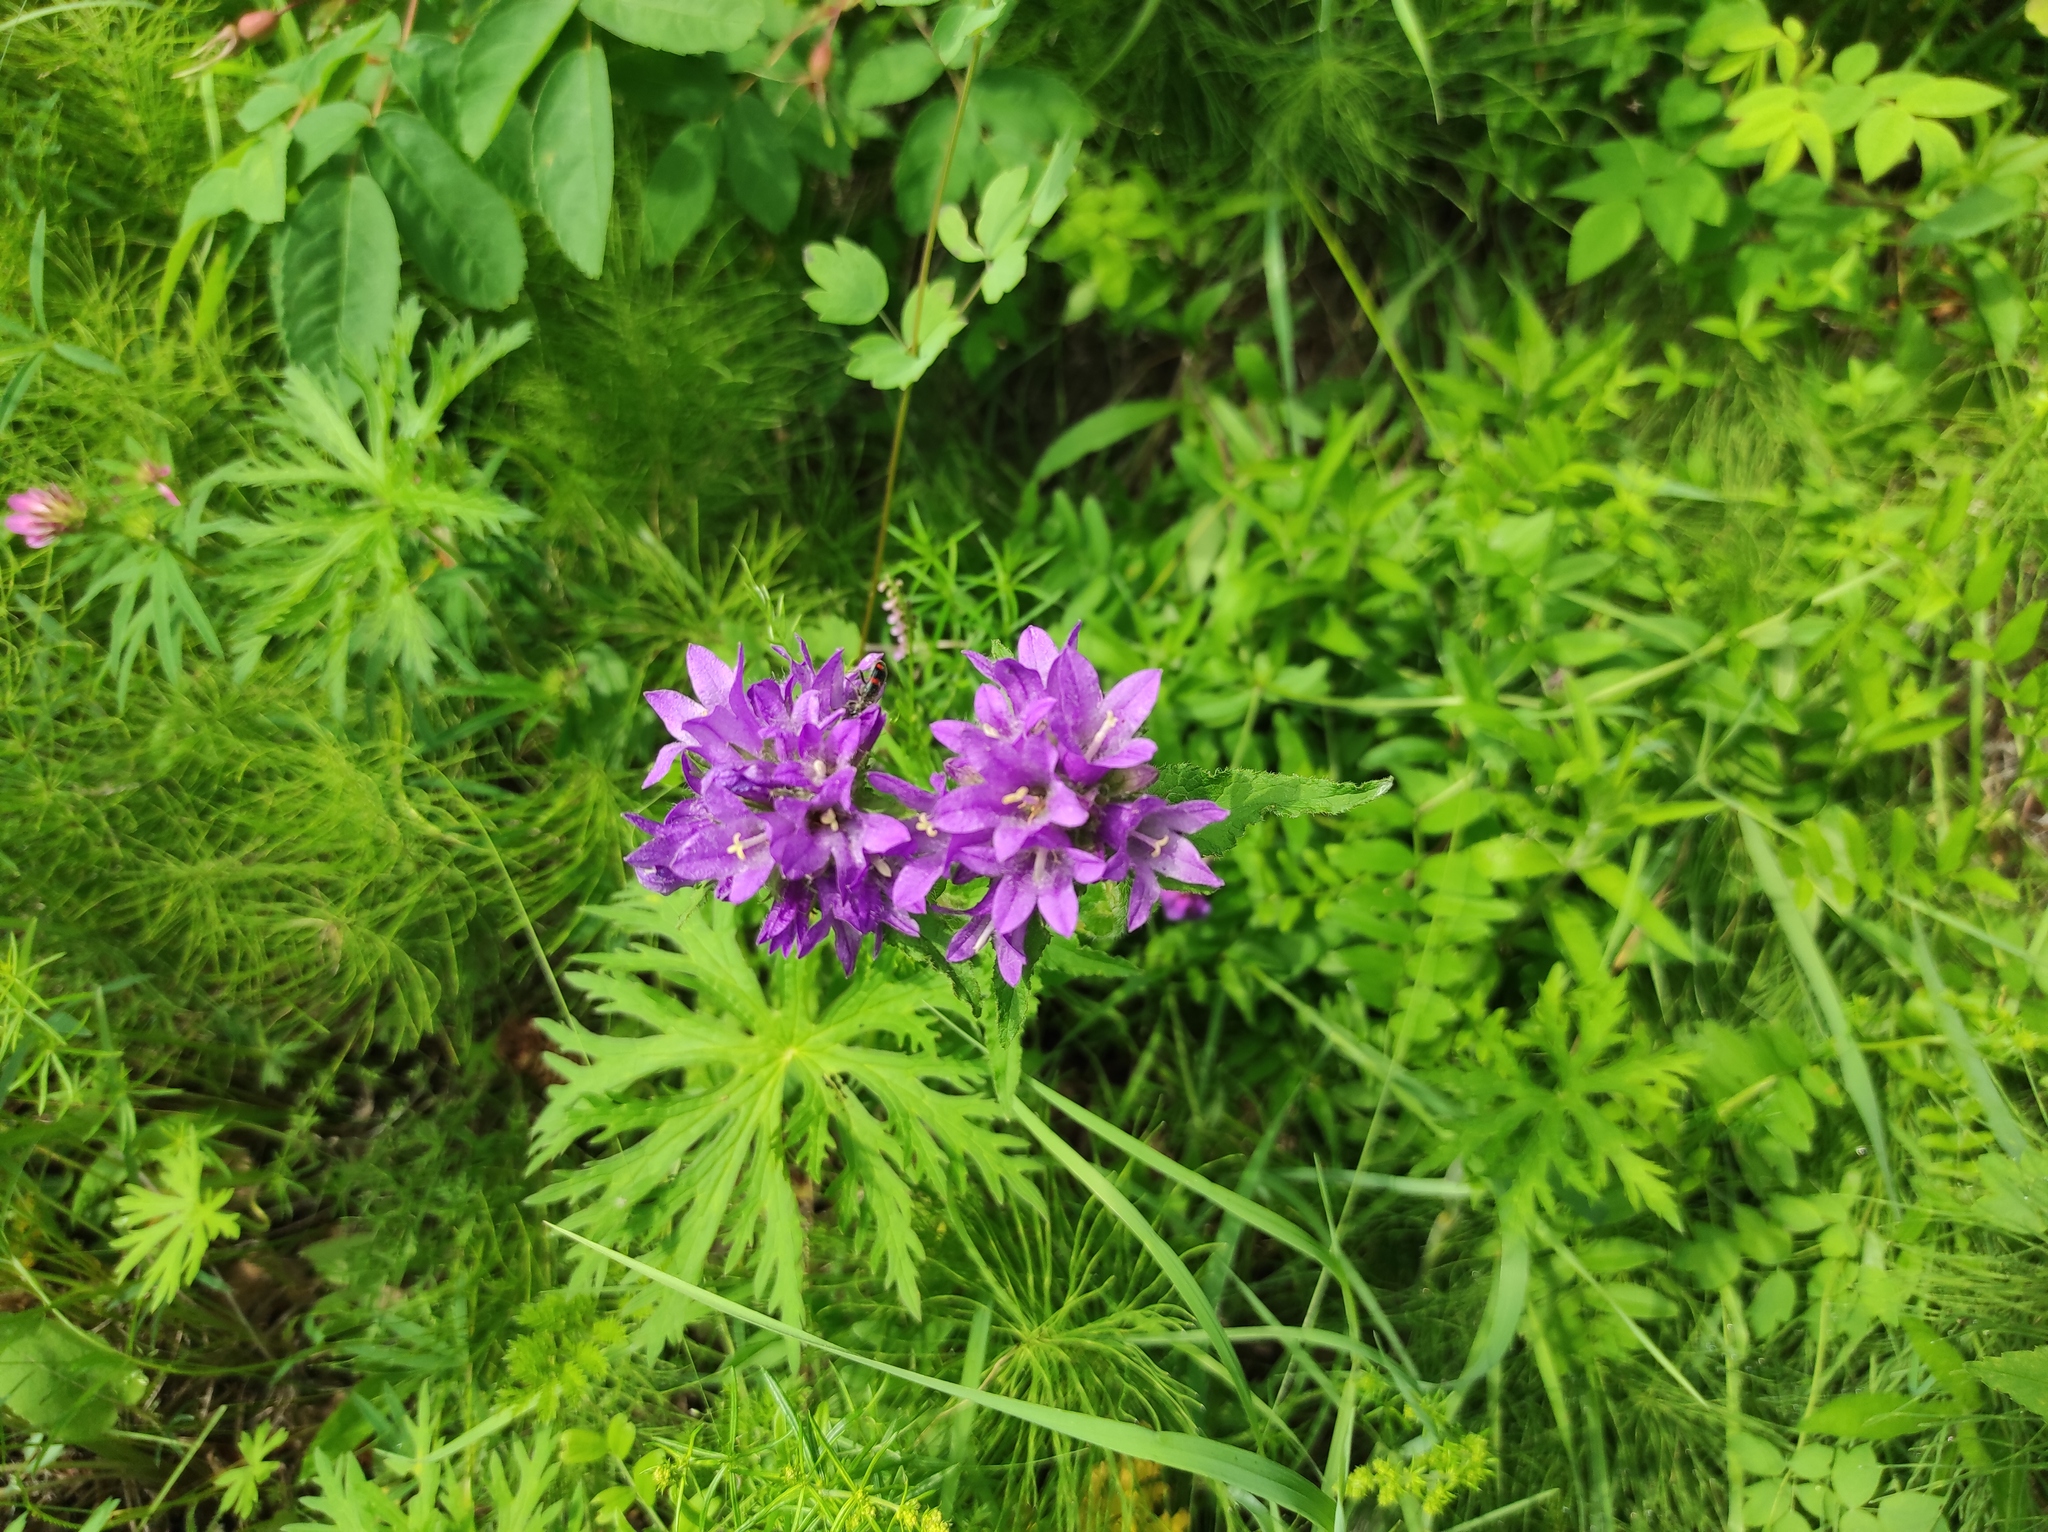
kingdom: Plantae
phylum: Tracheophyta
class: Magnoliopsida
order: Asterales
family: Campanulaceae
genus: Campanula
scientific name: Campanula glomerata
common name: Clustered bellflower
